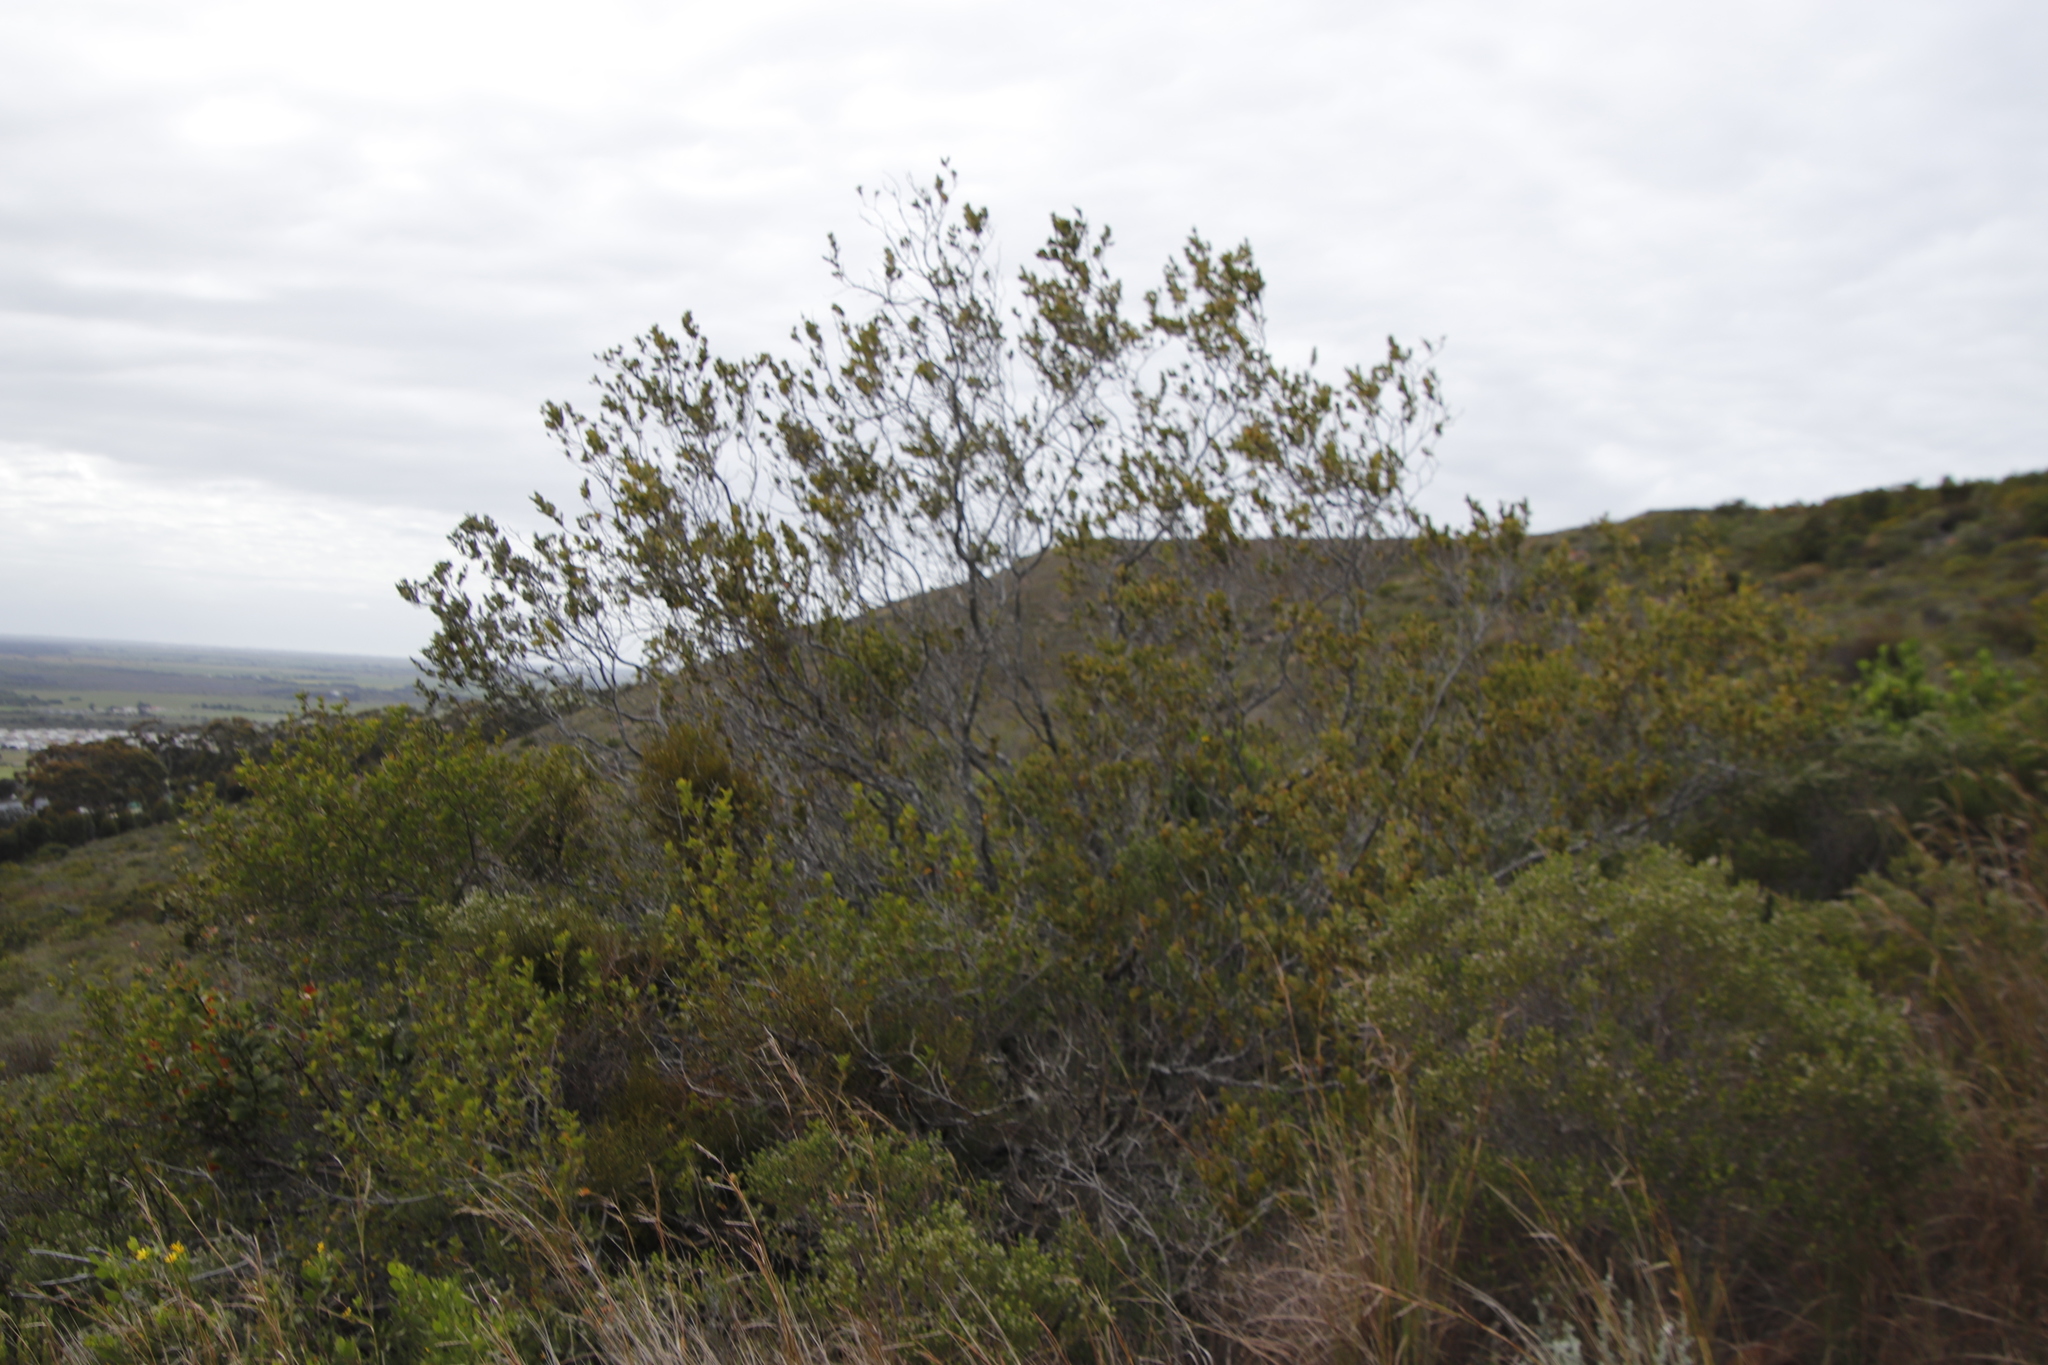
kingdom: Plantae
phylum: Tracheophyta
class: Magnoliopsida
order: Santalales
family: Santalaceae
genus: Osyris
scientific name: Osyris compressa
